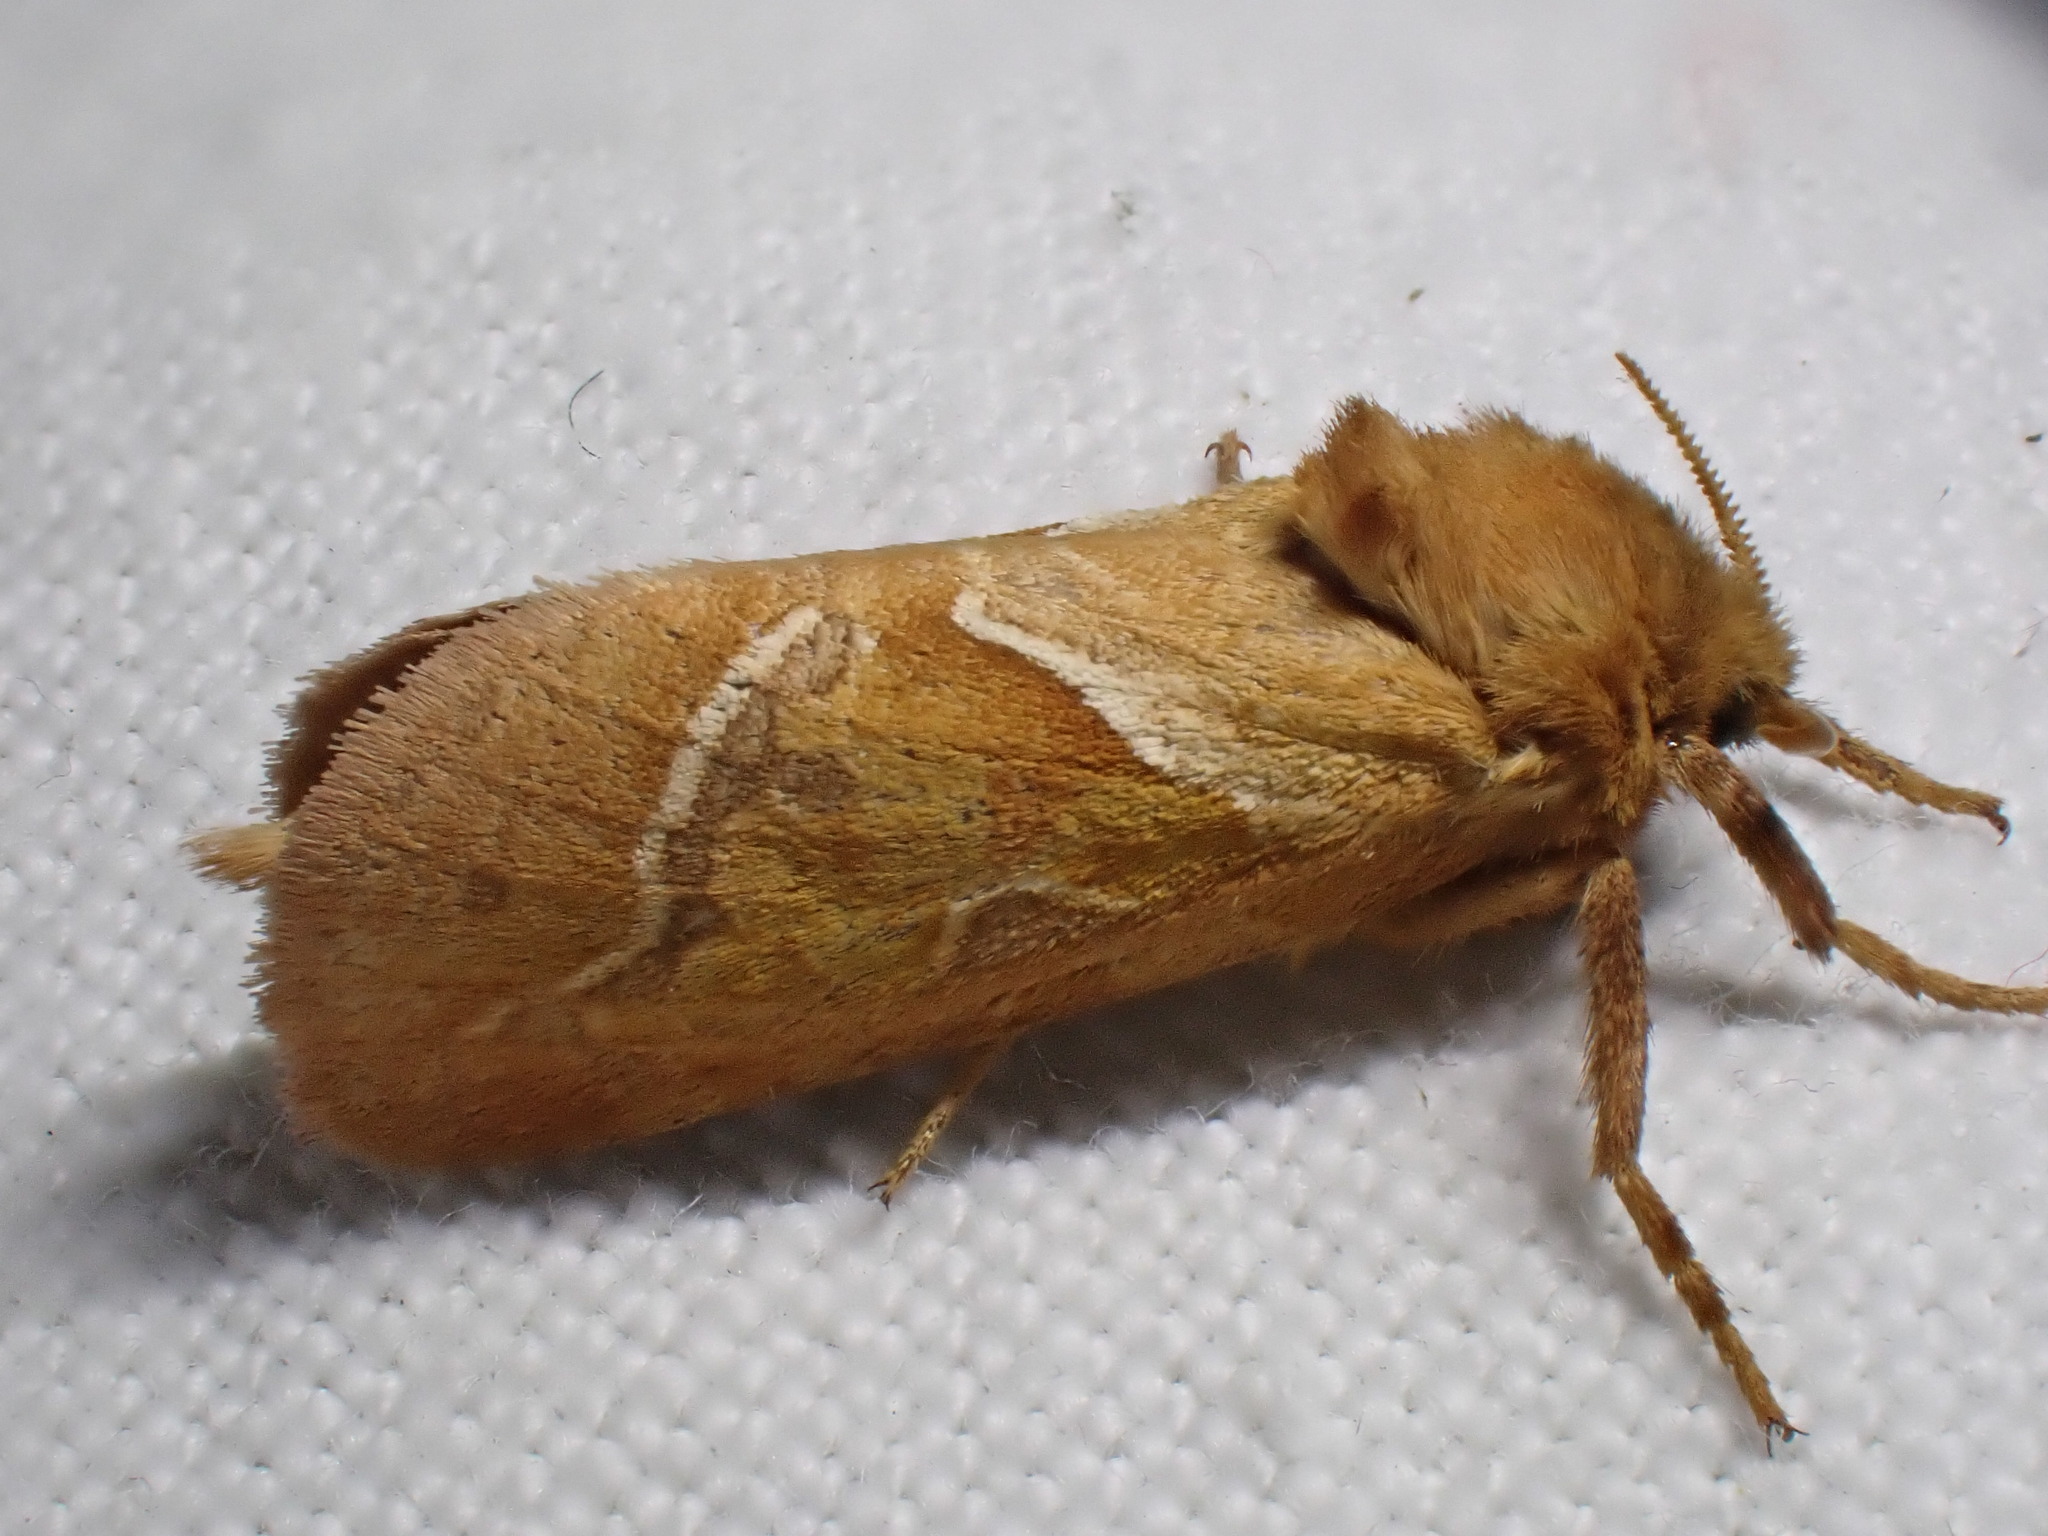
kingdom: Animalia
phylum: Arthropoda
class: Insecta
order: Lepidoptera
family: Hepialidae
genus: Triodia
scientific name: Triodia sylvina
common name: Orange swift
